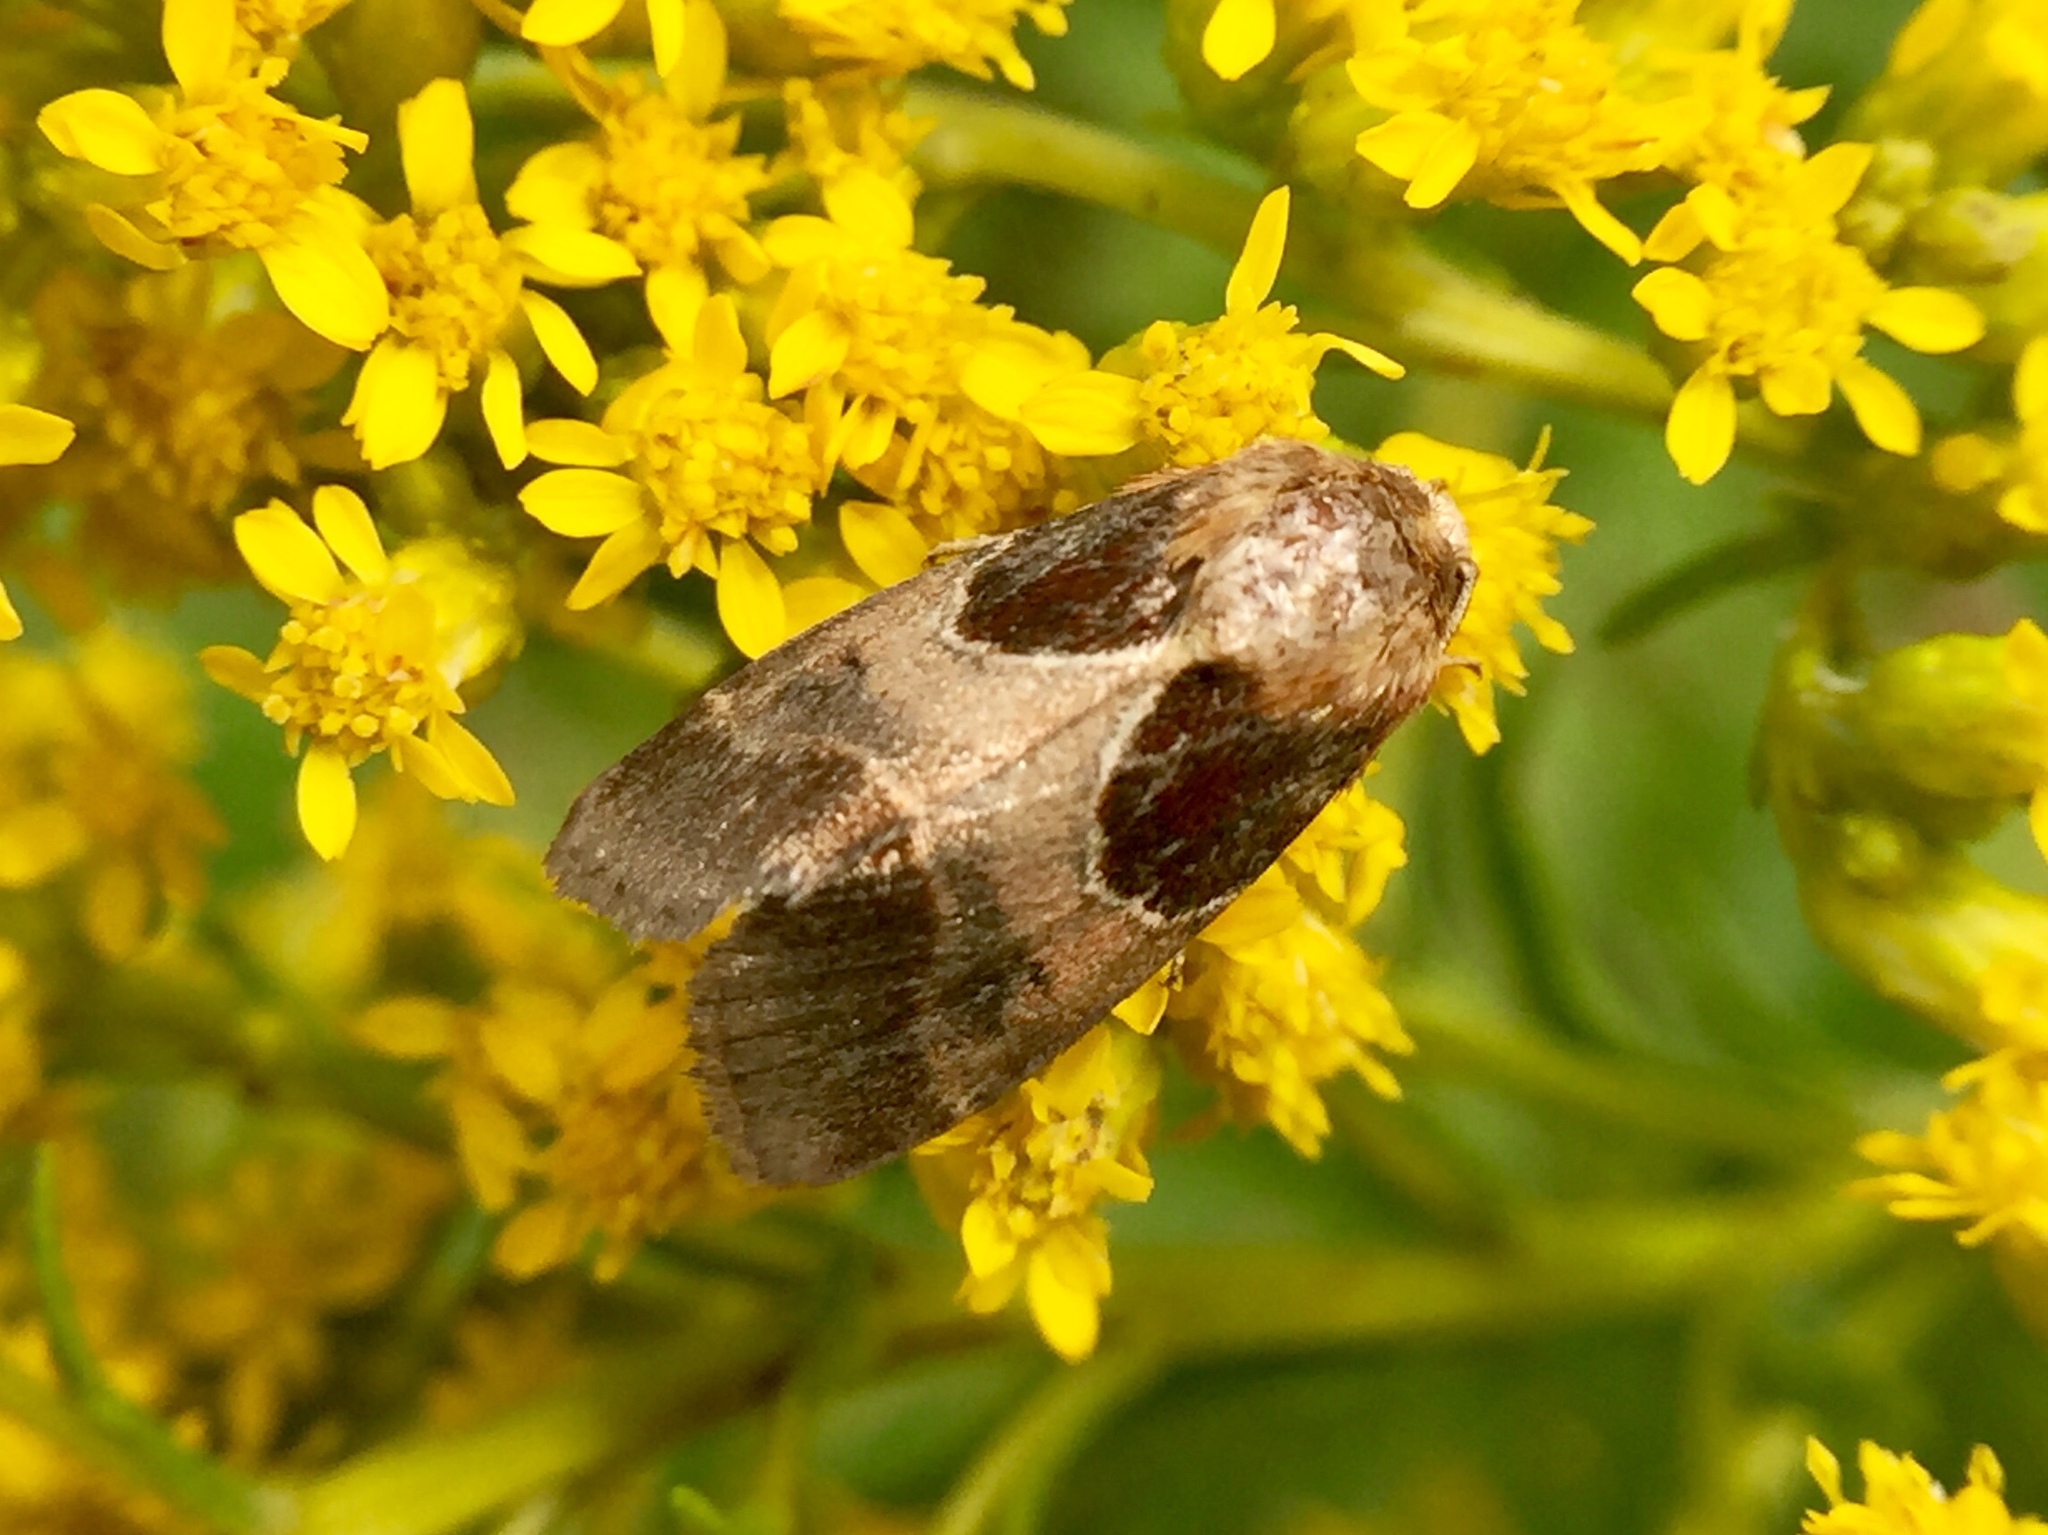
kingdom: Animalia
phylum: Arthropoda
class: Insecta
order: Lepidoptera
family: Noctuidae
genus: Schinia
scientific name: Schinia rivulosa
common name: Scarce meal-moth
